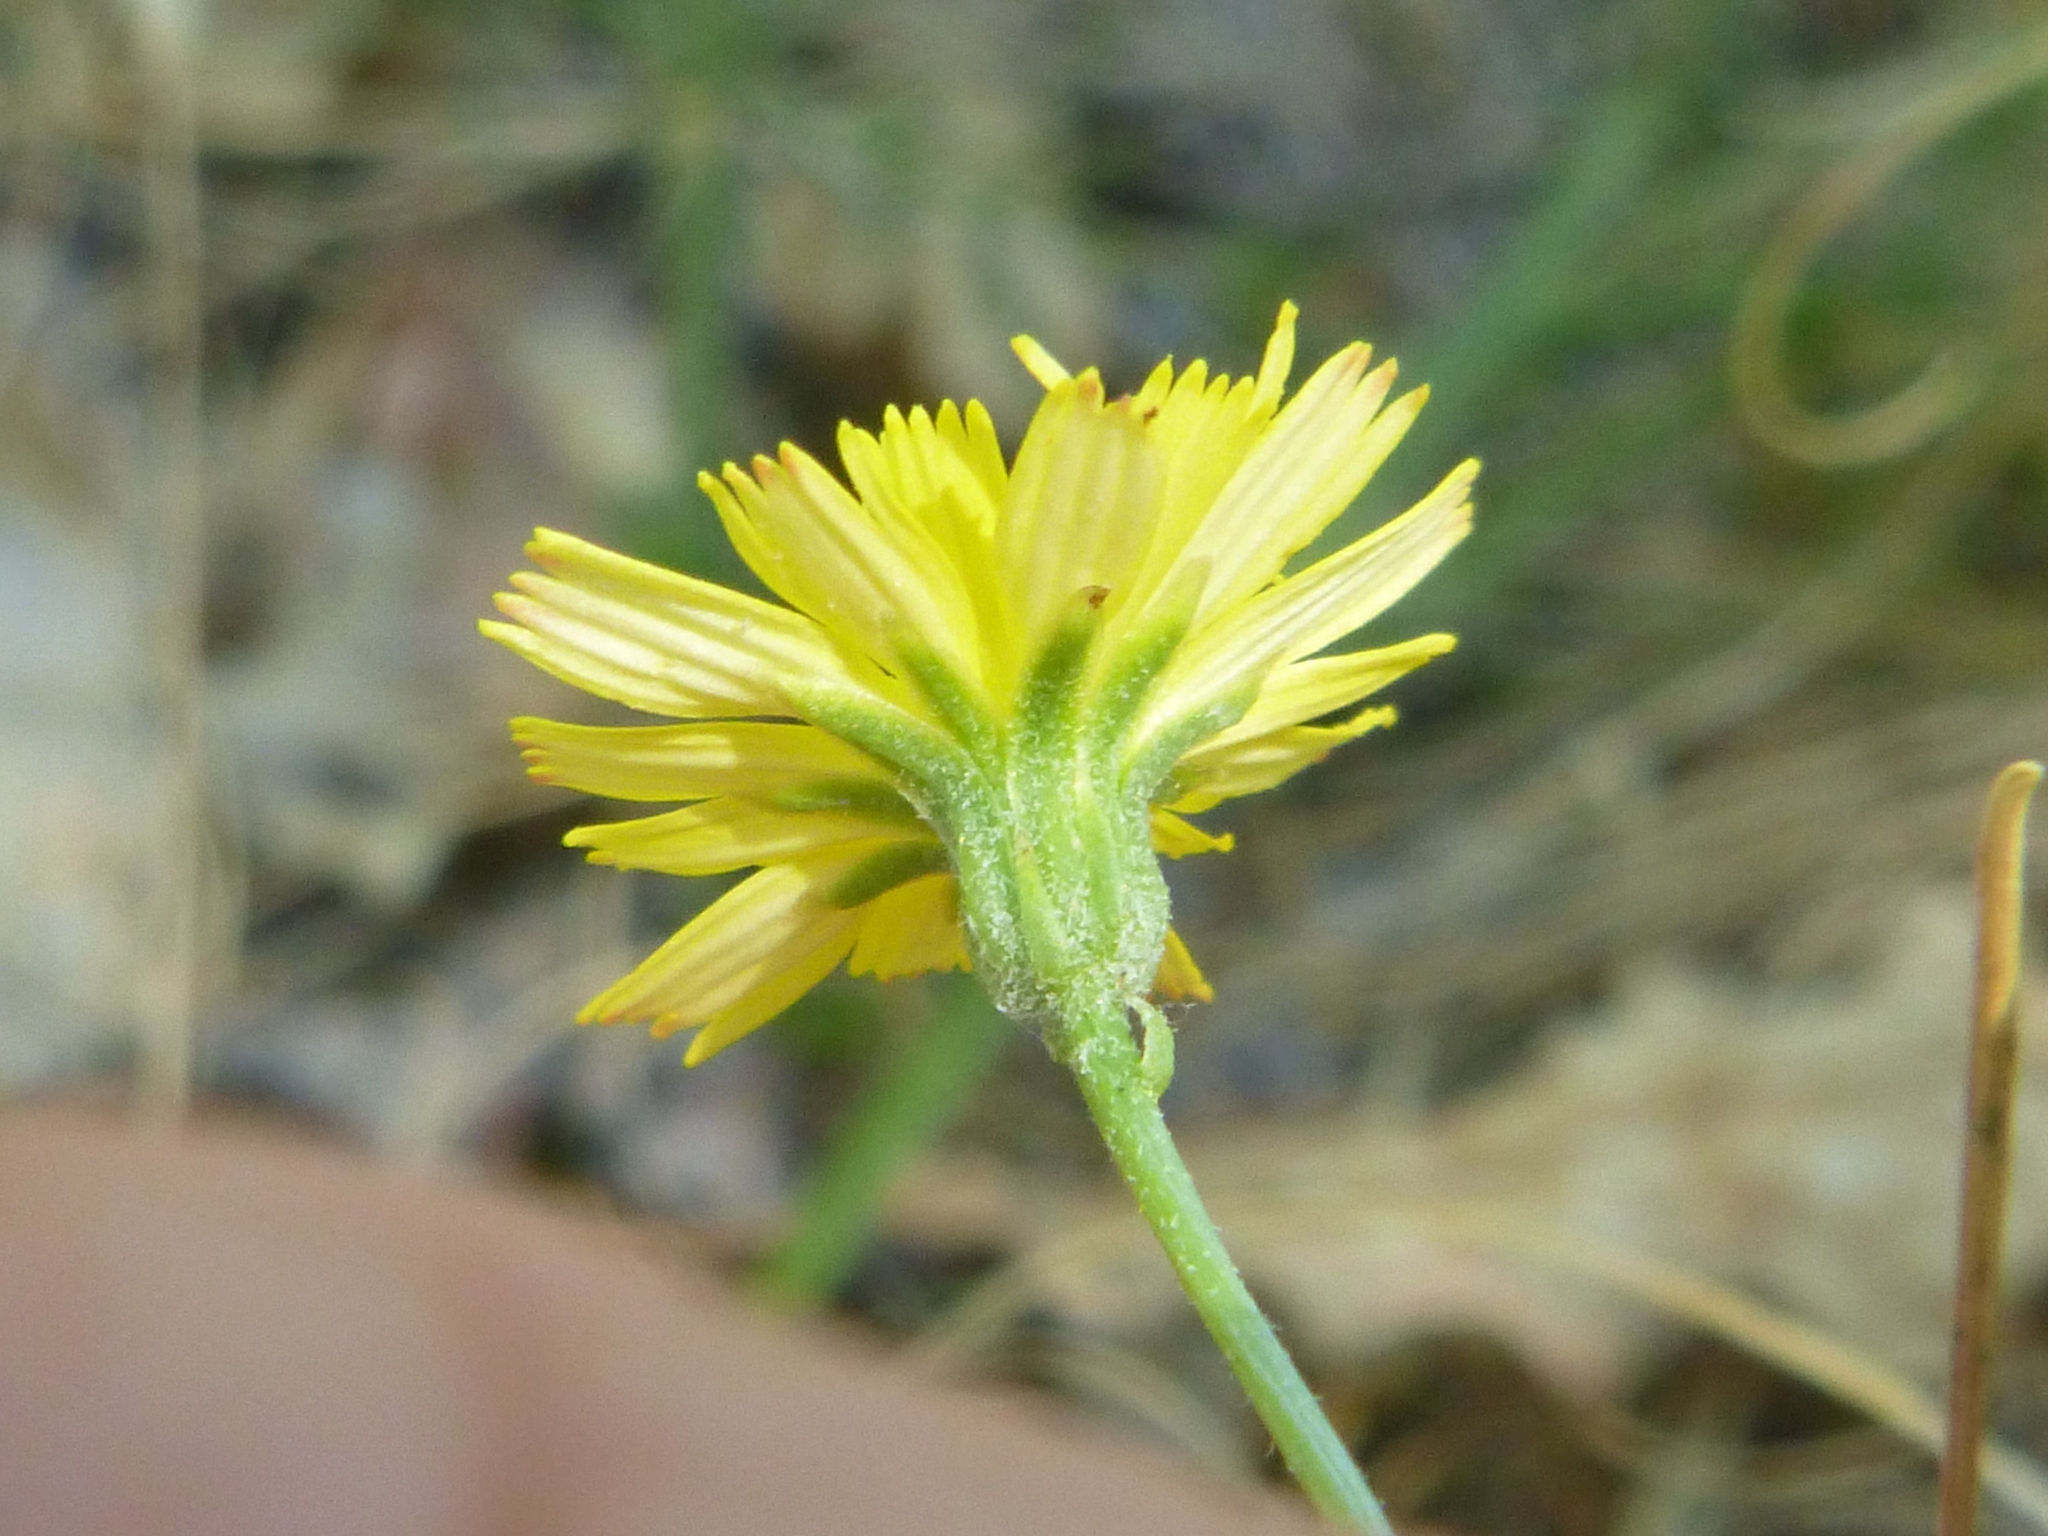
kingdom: Plantae
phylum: Tracheophyta
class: Magnoliopsida
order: Asterales
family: Asteraceae
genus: Crepis
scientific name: Crepis capillaris
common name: Smooth hawksbeard
